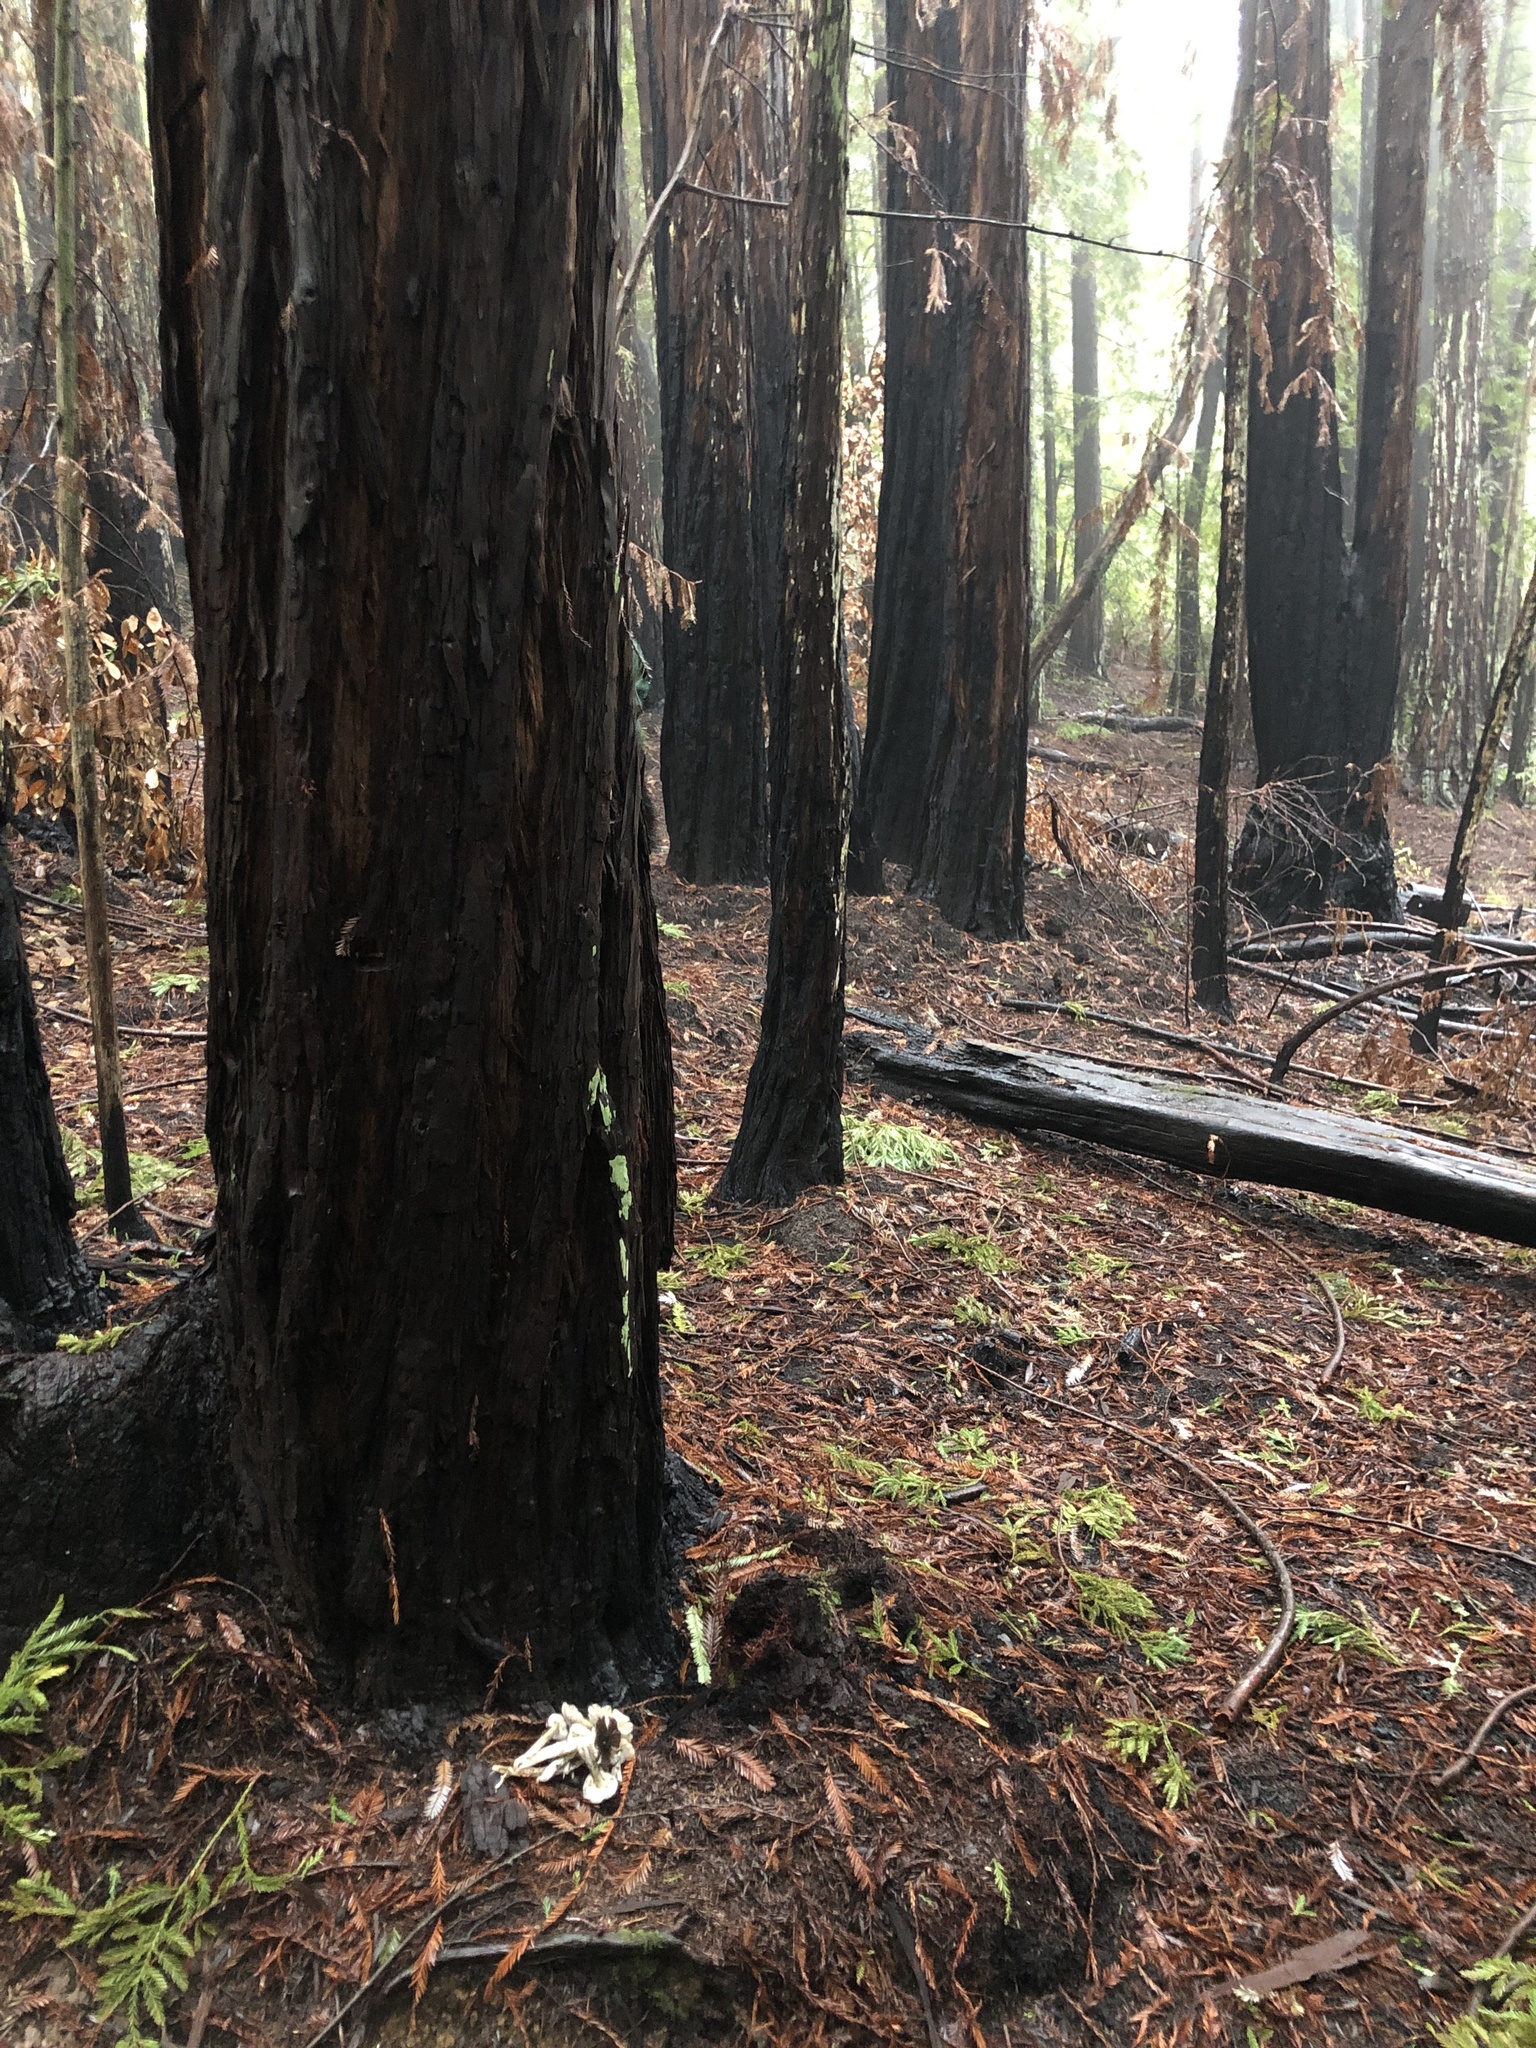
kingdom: Fungi
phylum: Basidiomycota
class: Agaricomycetes
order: Agaricales
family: Tricholomataceae
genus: Pseudobaeospora
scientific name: Pseudobaeospora deckeri
